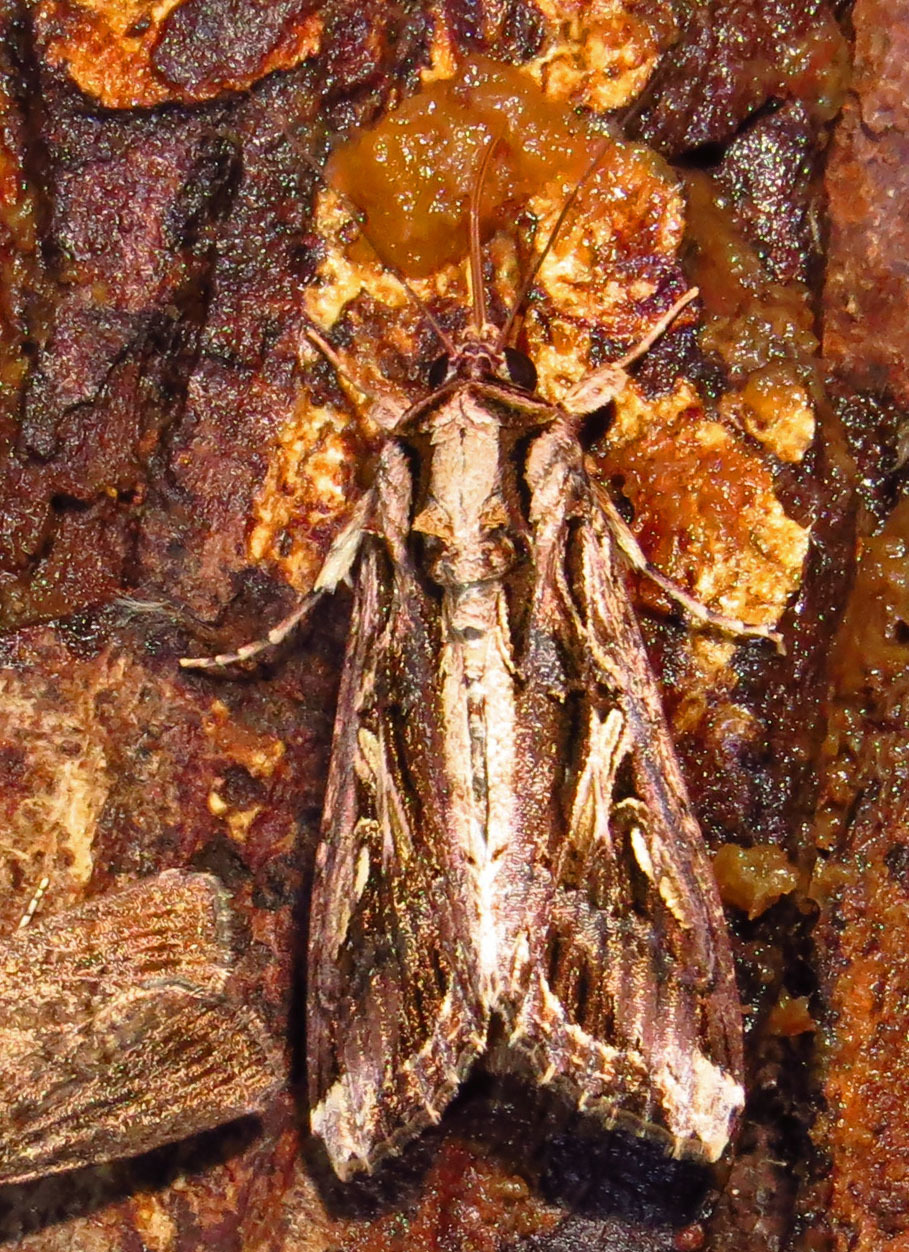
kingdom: Animalia
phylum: Arthropoda
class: Insecta
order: Lepidoptera
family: Noctuidae
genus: Spodoptera
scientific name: Spodoptera dolichos
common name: Sweetpotato armyworm
